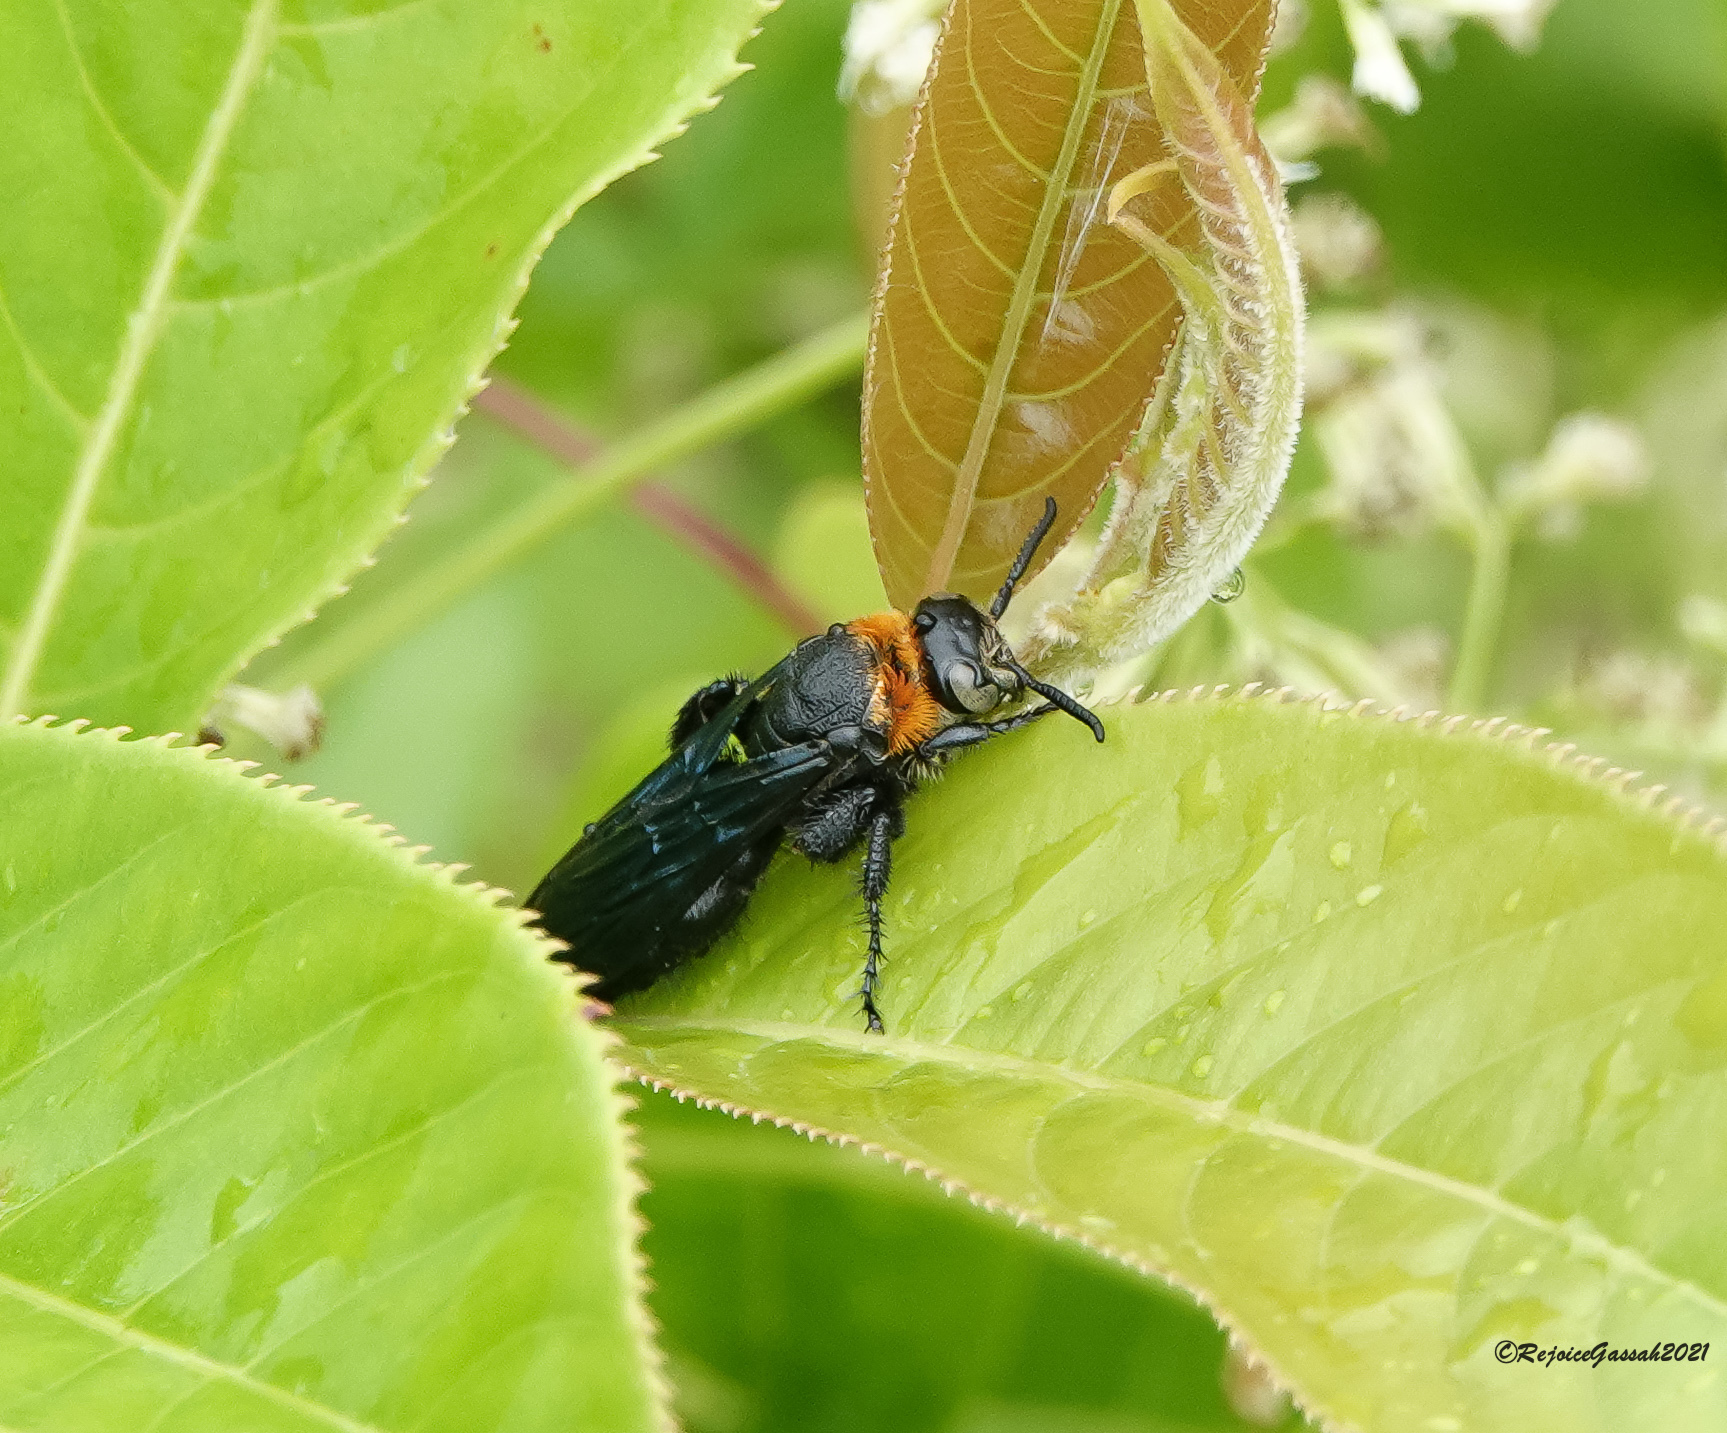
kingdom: Animalia
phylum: Arthropoda
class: Insecta
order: Hymenoptera
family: Scoliidae
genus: Campsomeriella
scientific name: Campsomeriella collaris
